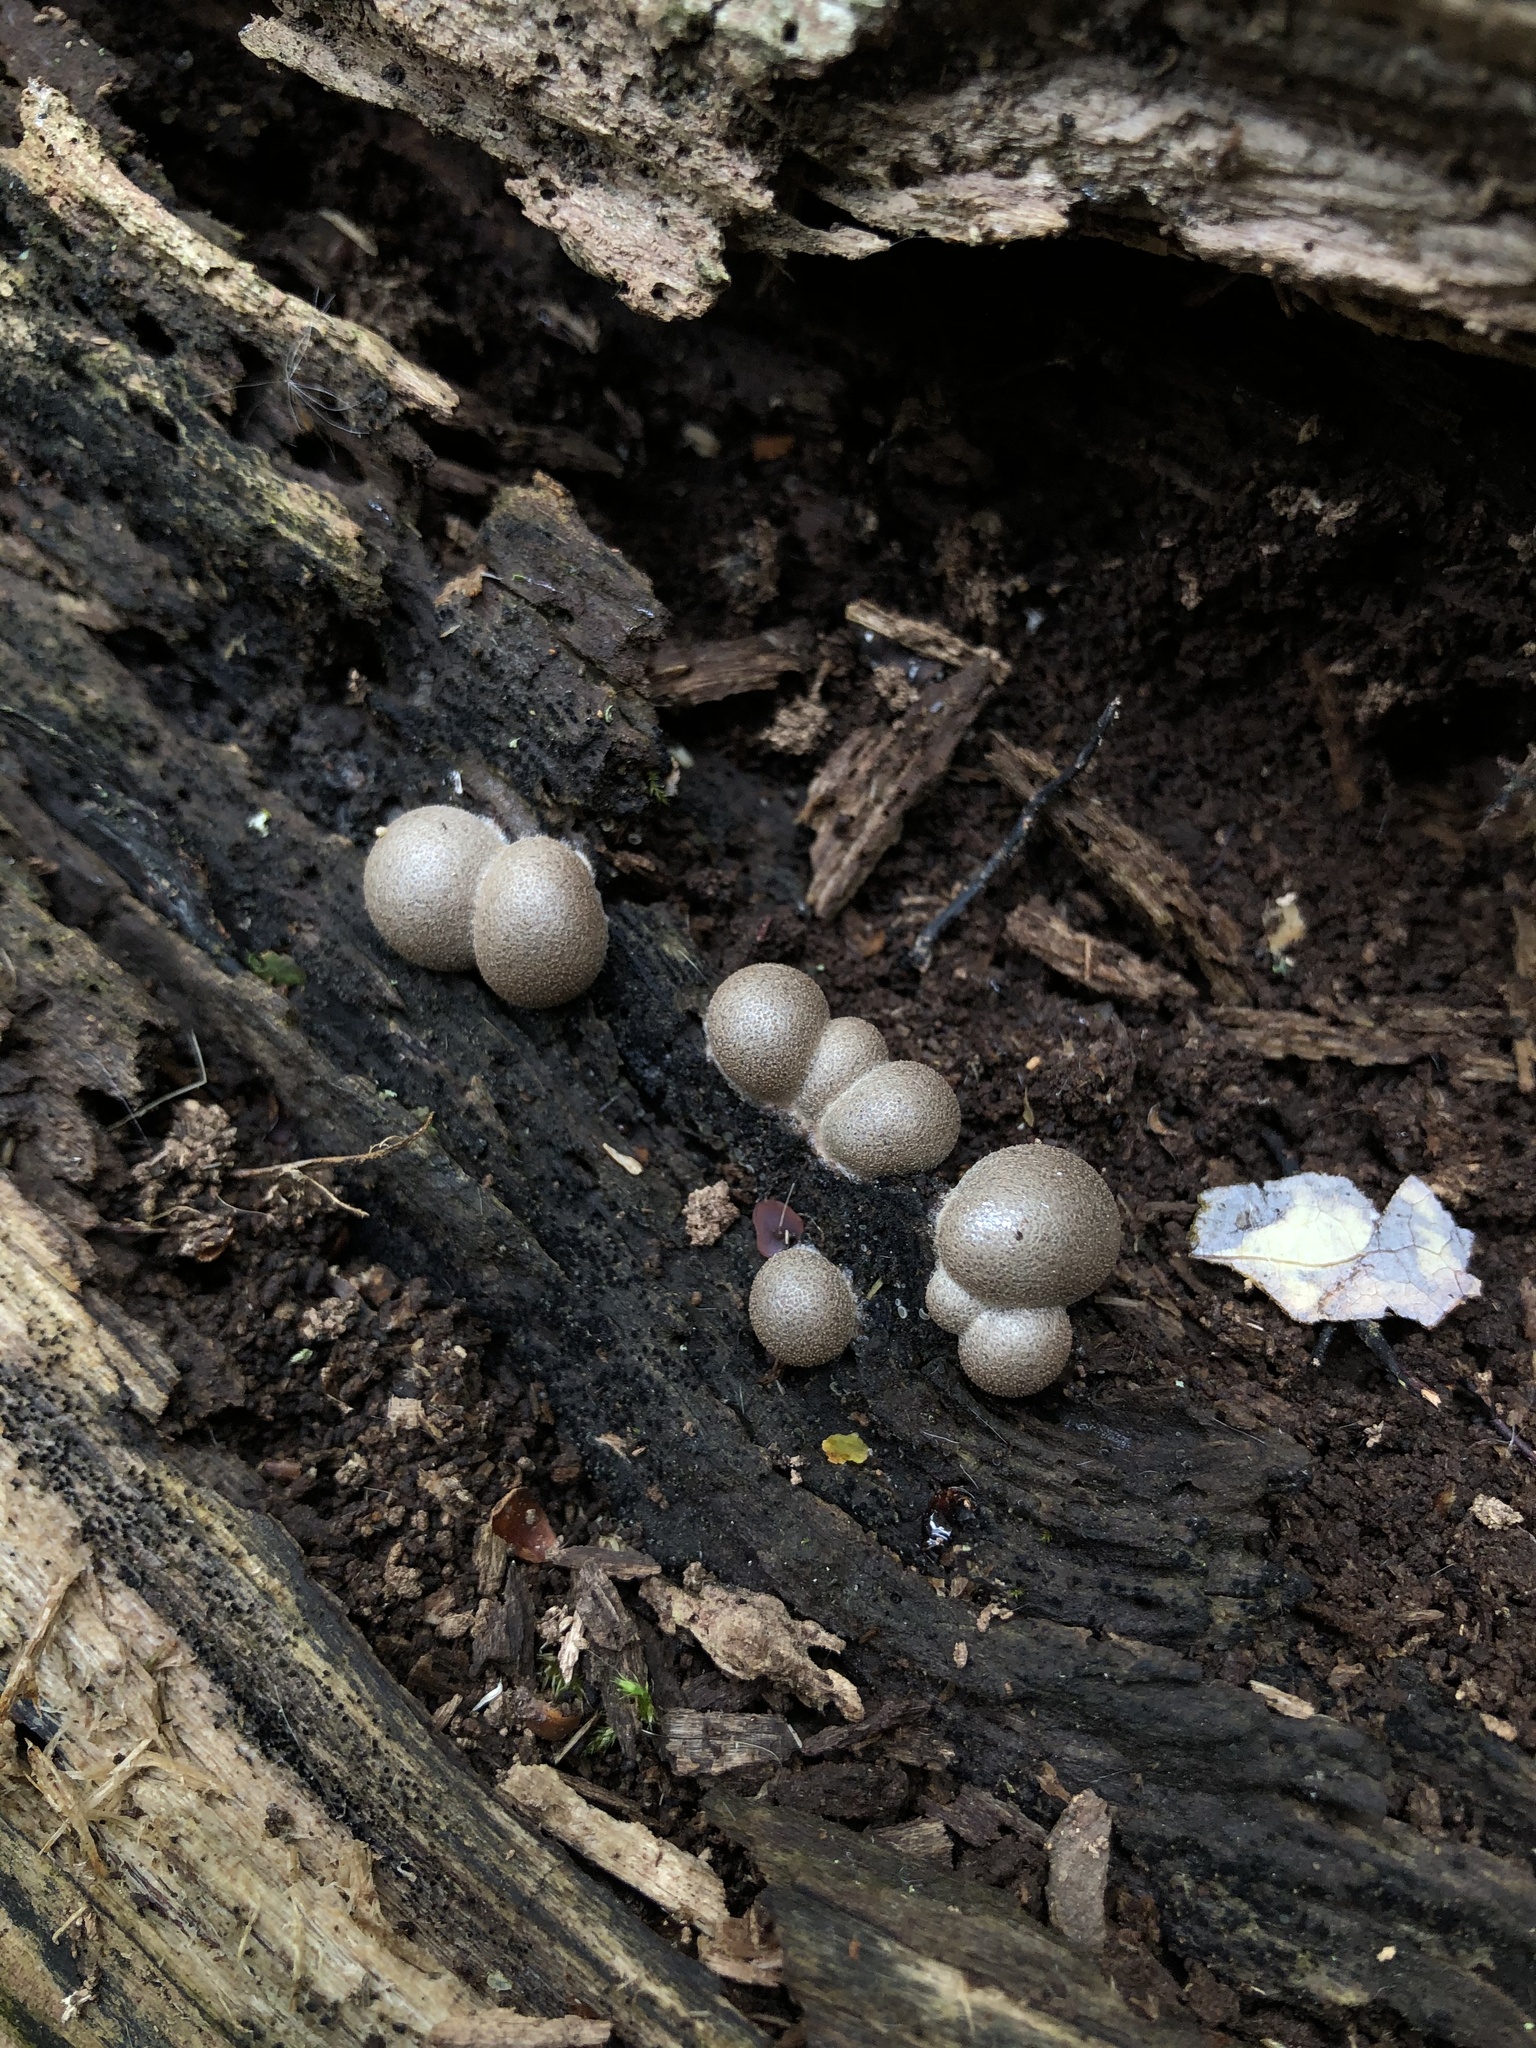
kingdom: Protozoa
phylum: Mycetozoa
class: Myxomycetes
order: Cribrariales
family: Tubiferaceae
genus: Lycogala
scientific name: Lycogala epidendrum
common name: Wolf's milk
